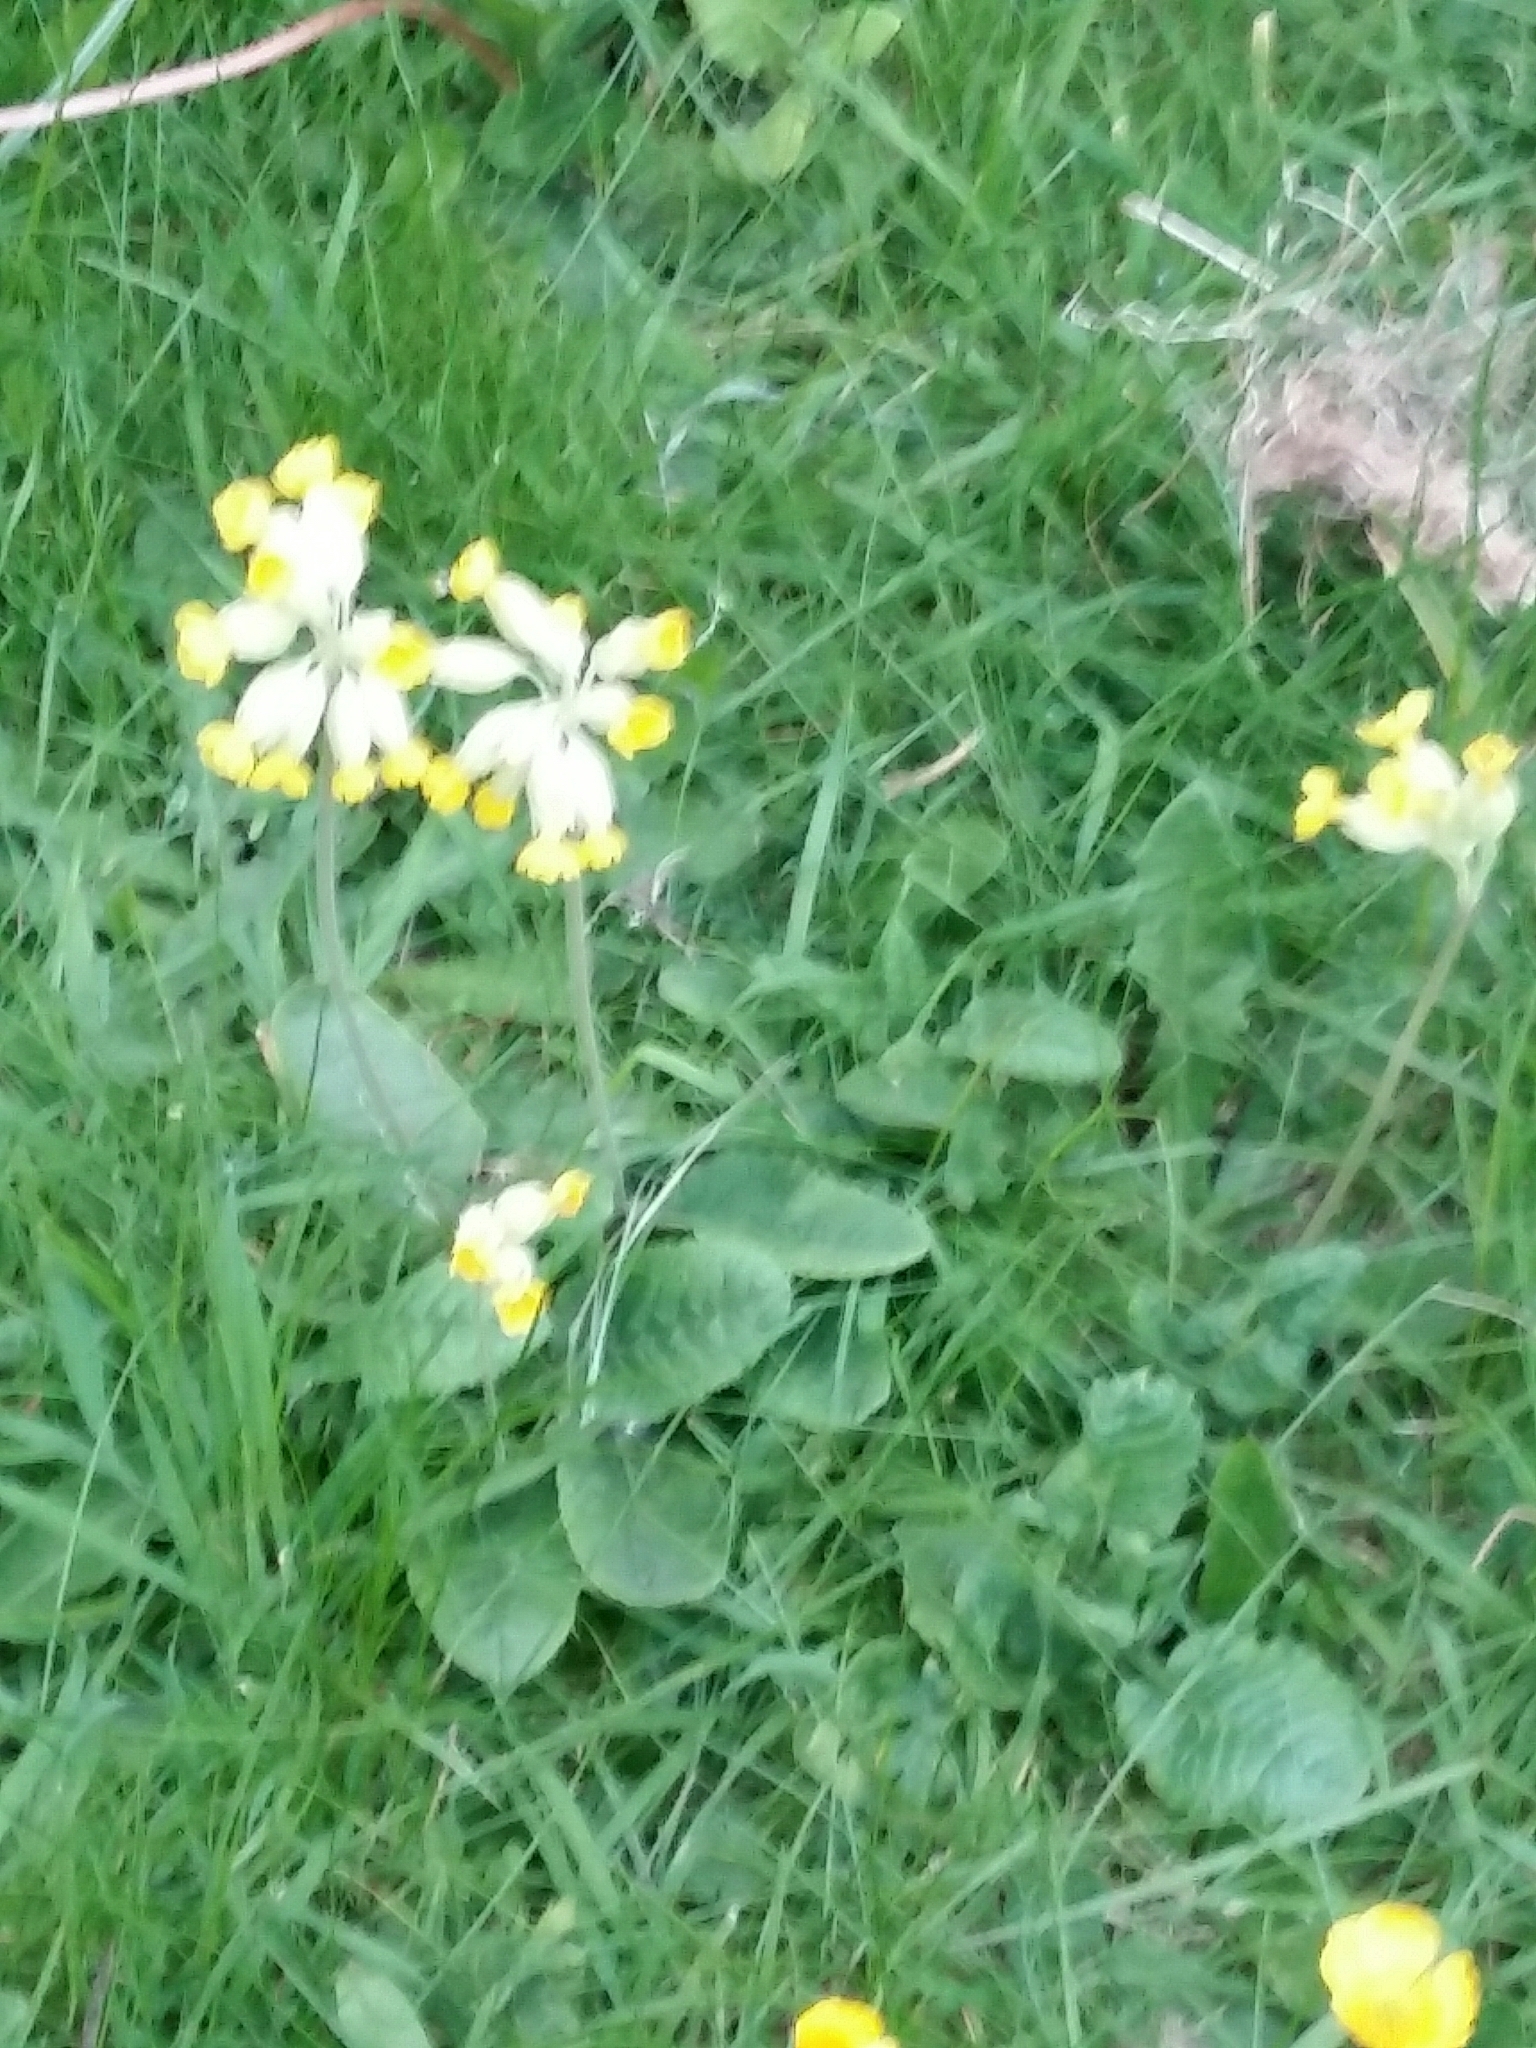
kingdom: Plantae
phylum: Tracheophyta
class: Magnoliopsida
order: Ericales
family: Primulaceae
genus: Primula
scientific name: Primula veris
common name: Cowslip
